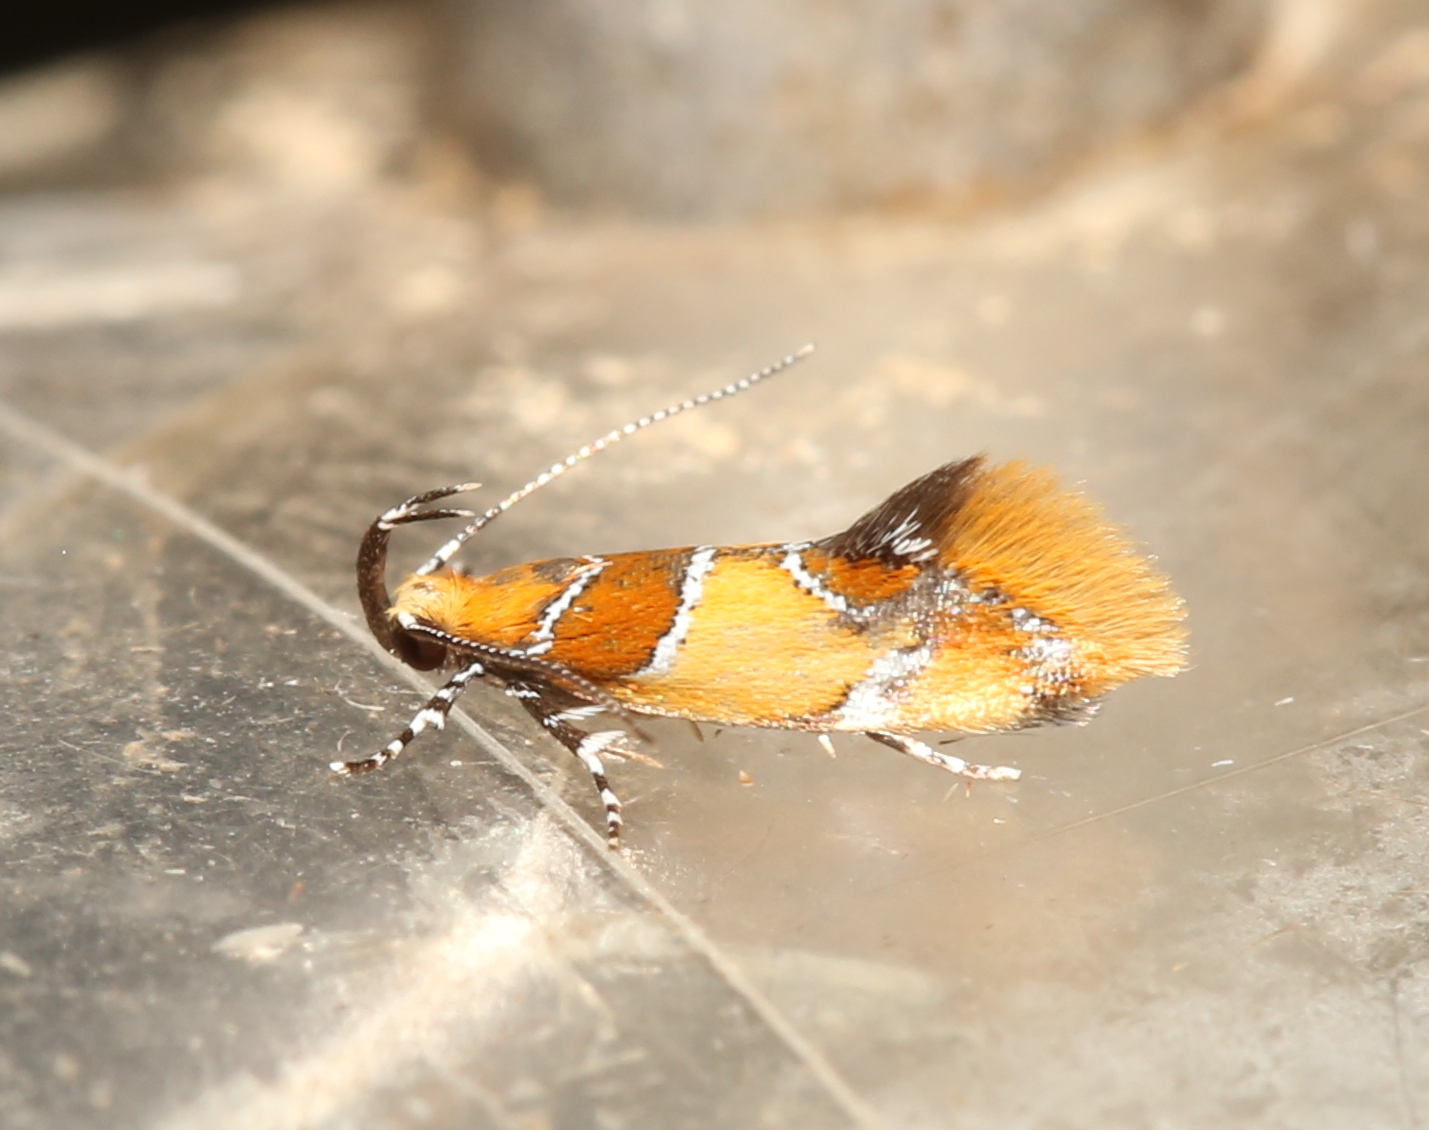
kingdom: Animalia
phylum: Arthropoda
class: Insecta
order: Lepidoptera
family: Oecophoridae
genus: Callima
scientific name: Callima argenticinctella
